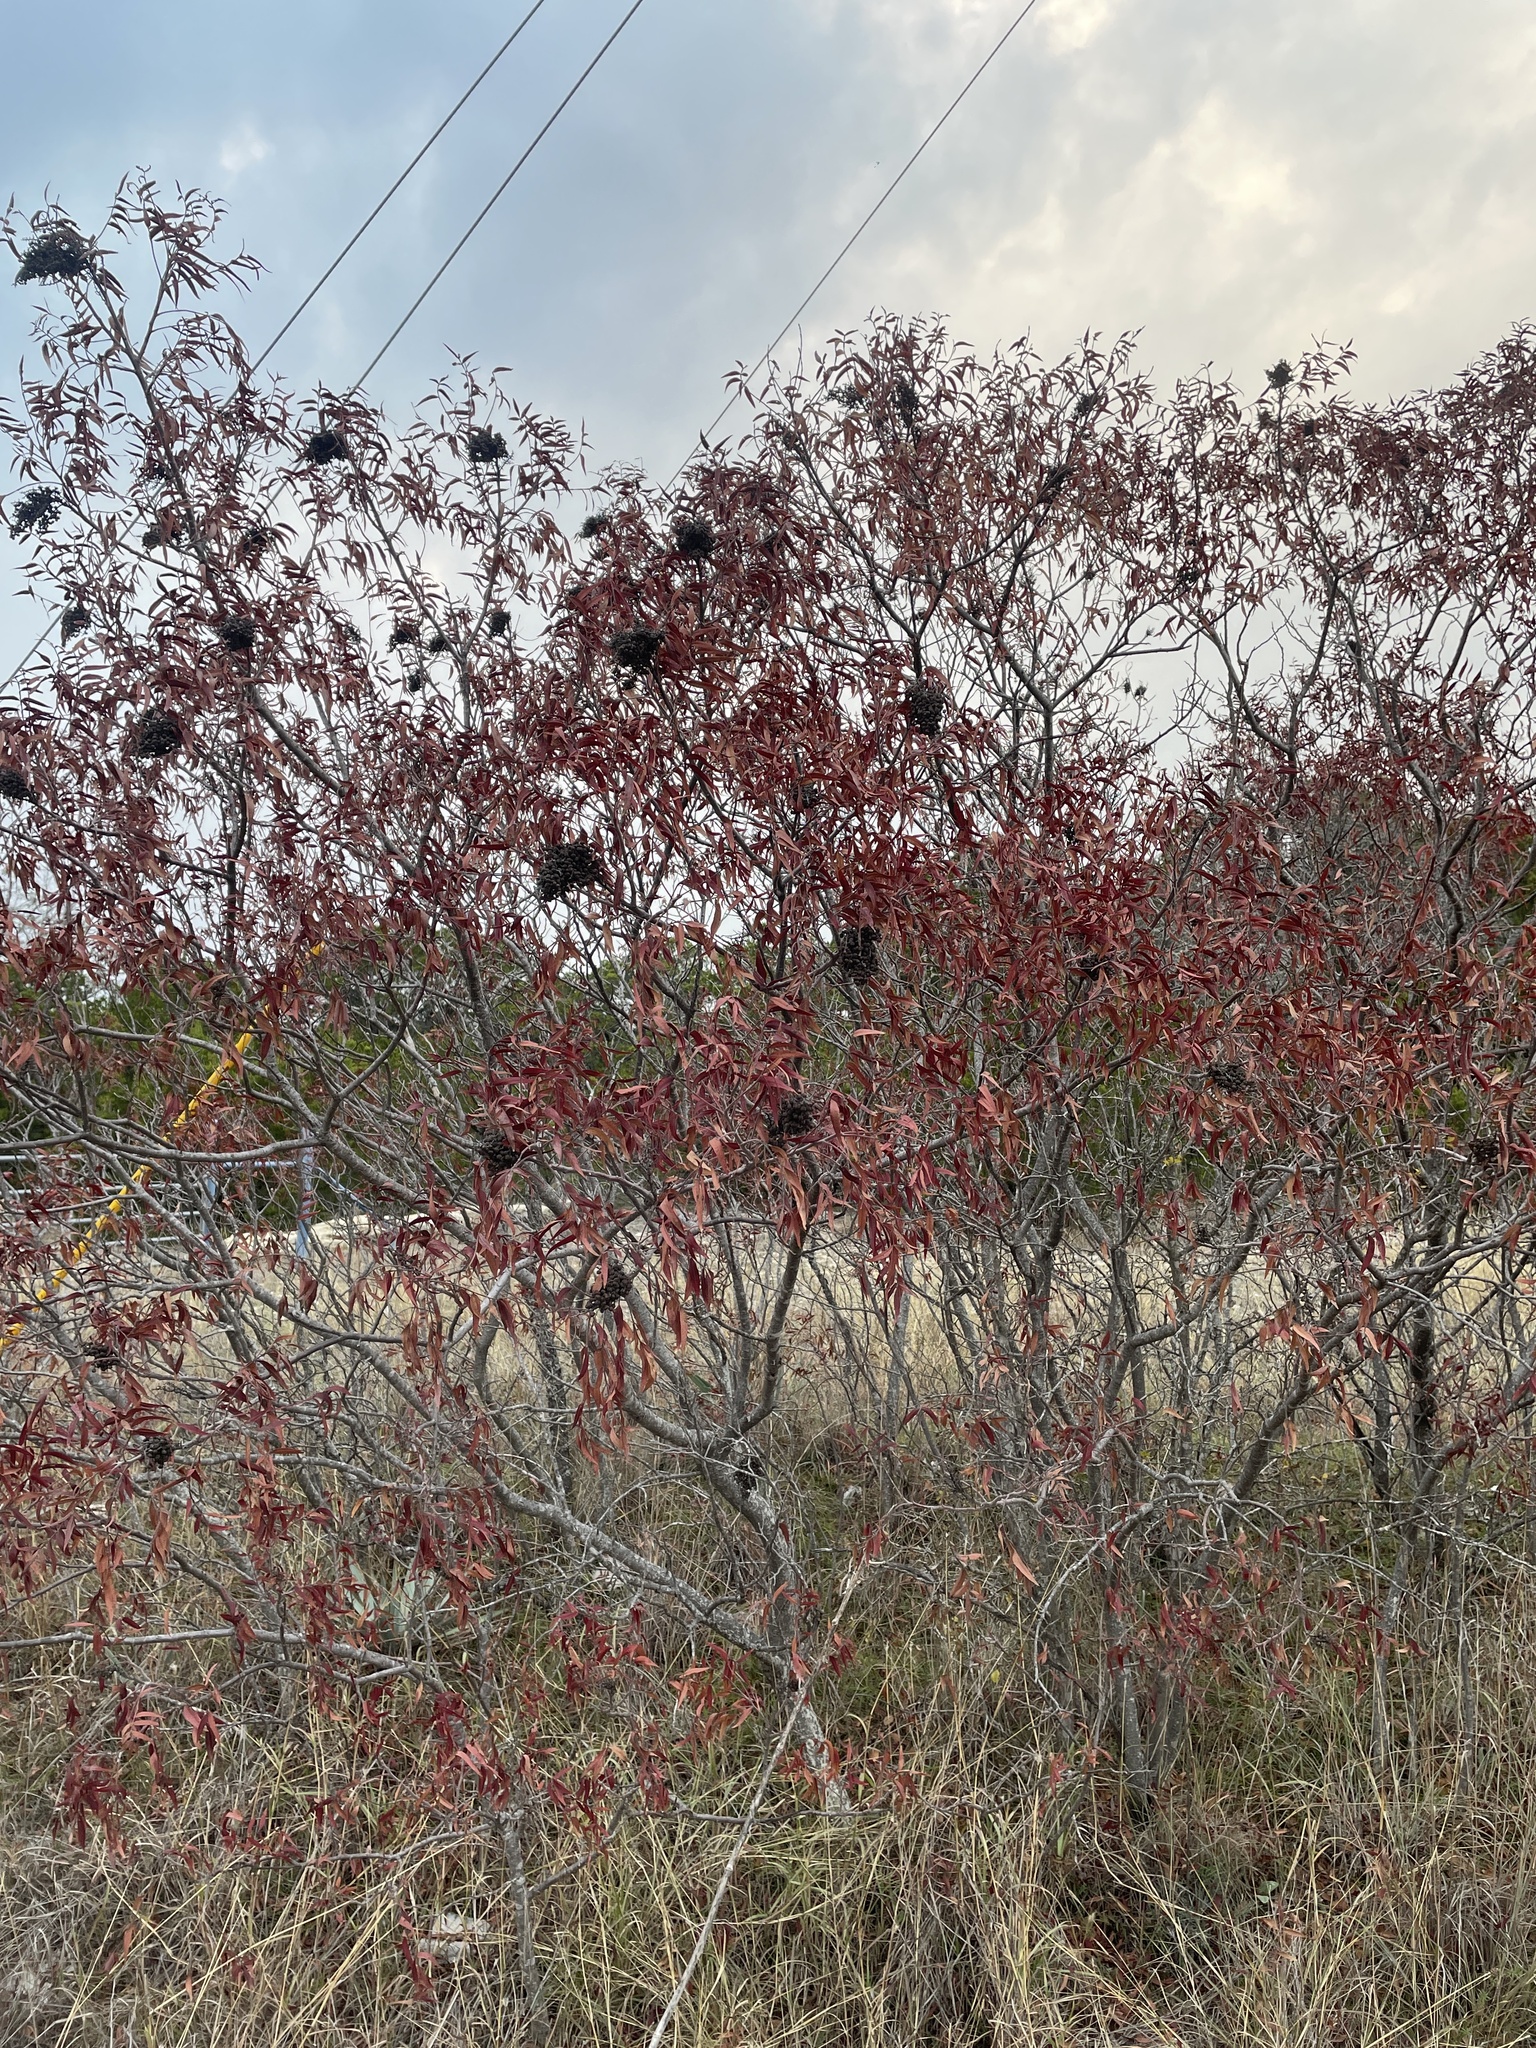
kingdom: Plantae
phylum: Tracheophyta
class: Magnoliopsida
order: Sapindales
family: Anacardiaceae
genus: Rhus
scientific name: Rhus lanceolata
